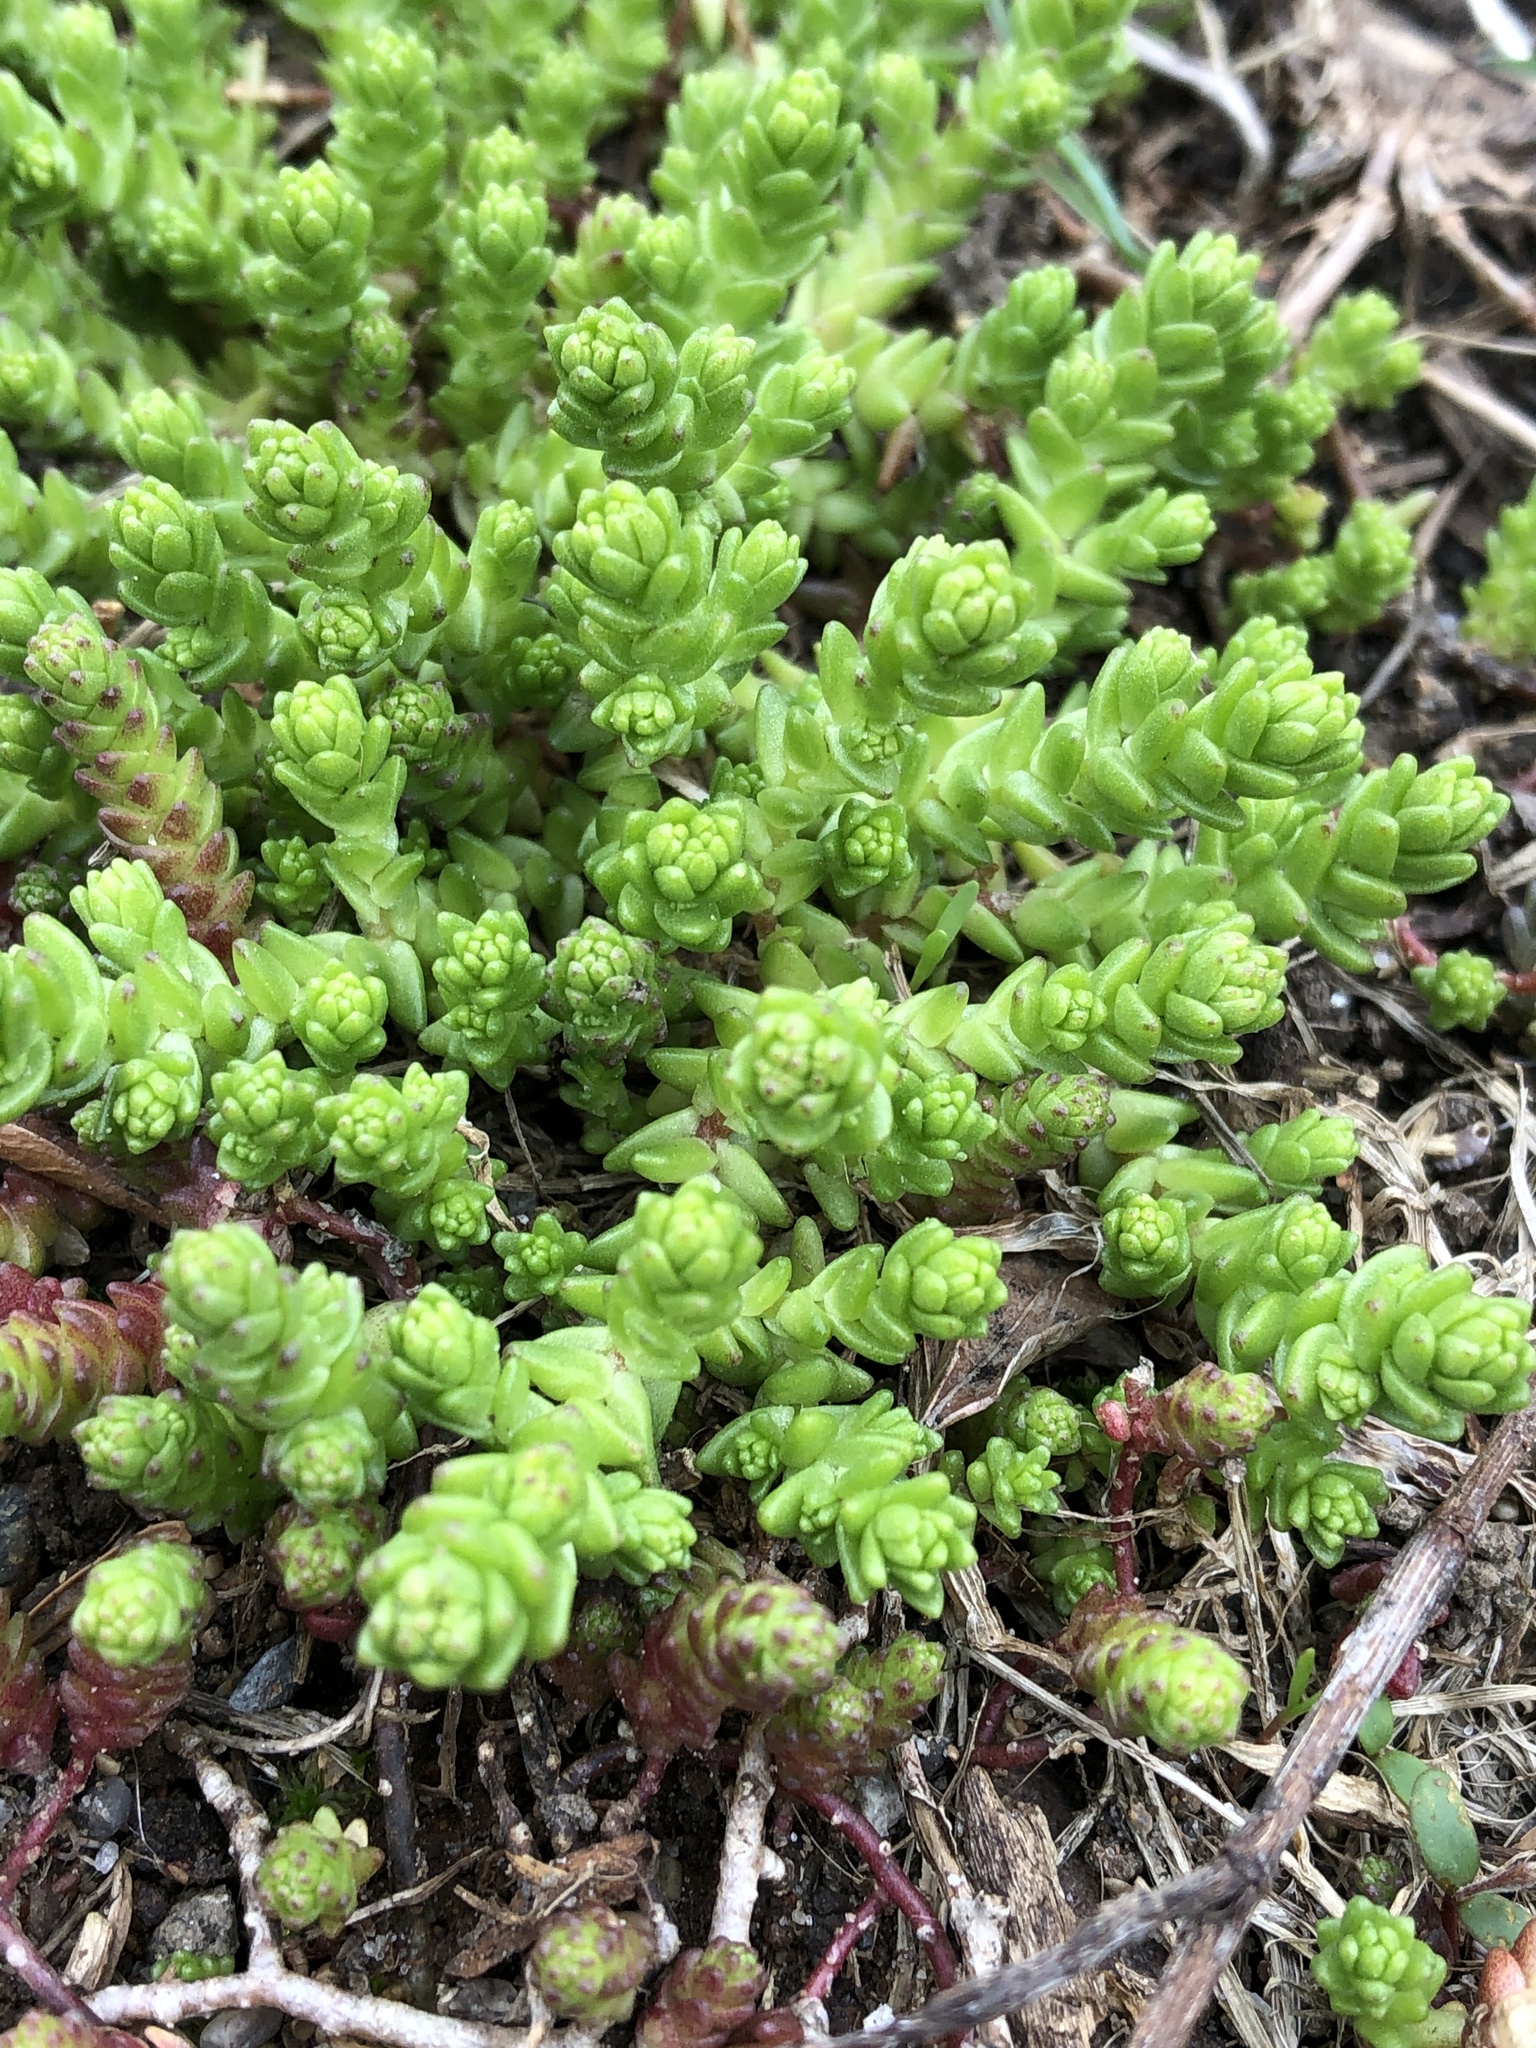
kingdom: Plantae
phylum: Tracheophyta
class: Magnoliopsida
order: Saxifragales
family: Crassulaceae
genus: Sedum
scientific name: Sedum acre
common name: Biting stonecrop
